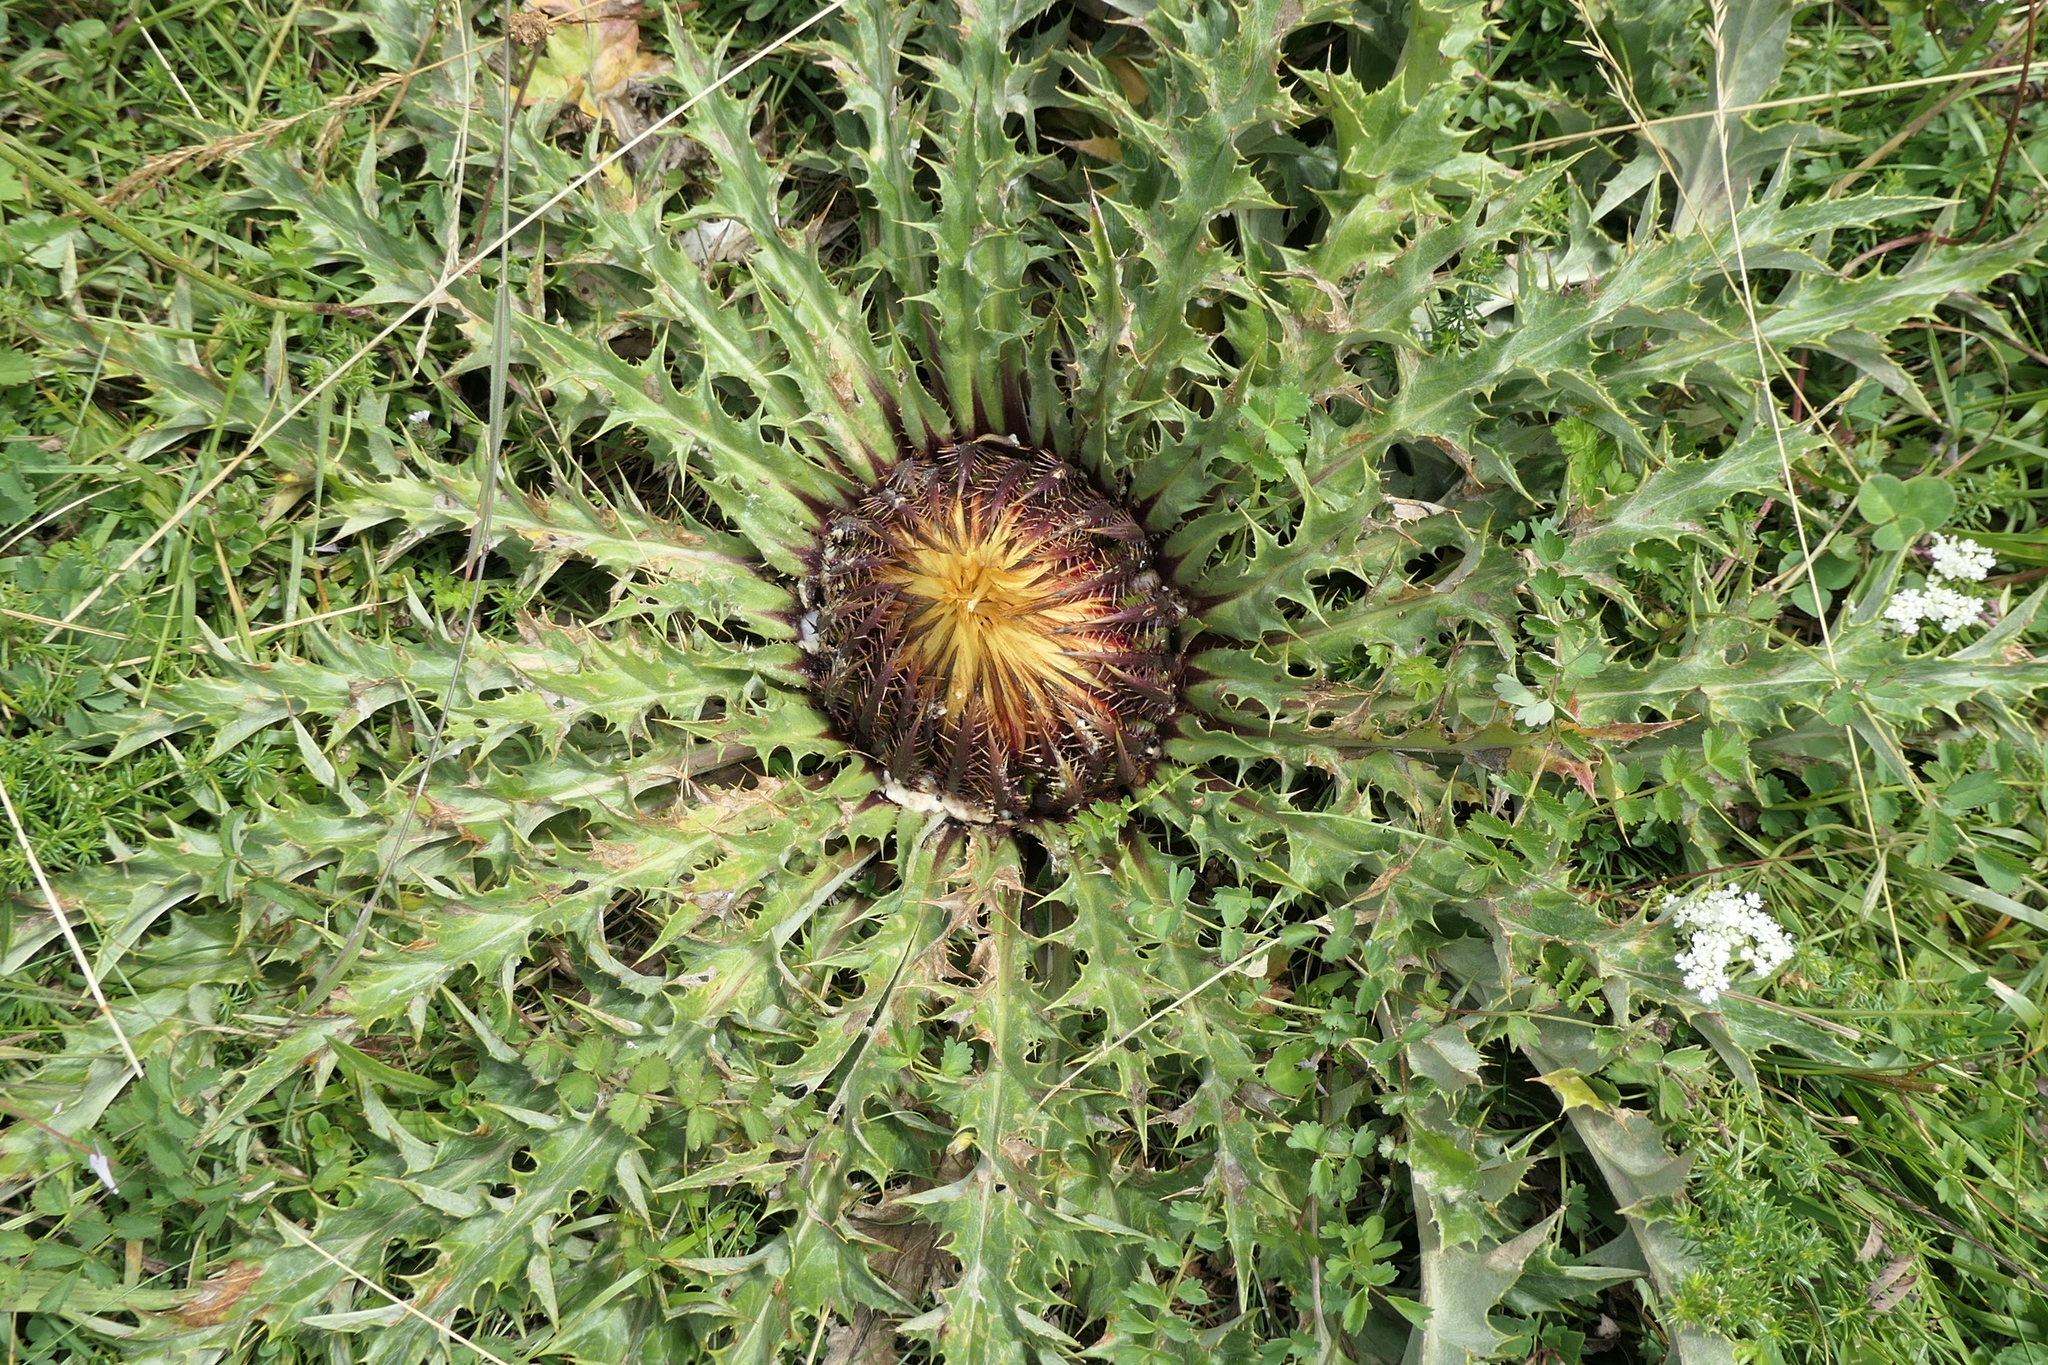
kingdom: Plantae
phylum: Tracheophyta
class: Magnoliopsida
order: Asterales
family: Asteraceae
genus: Carlina
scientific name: Carlina acanthifolia
